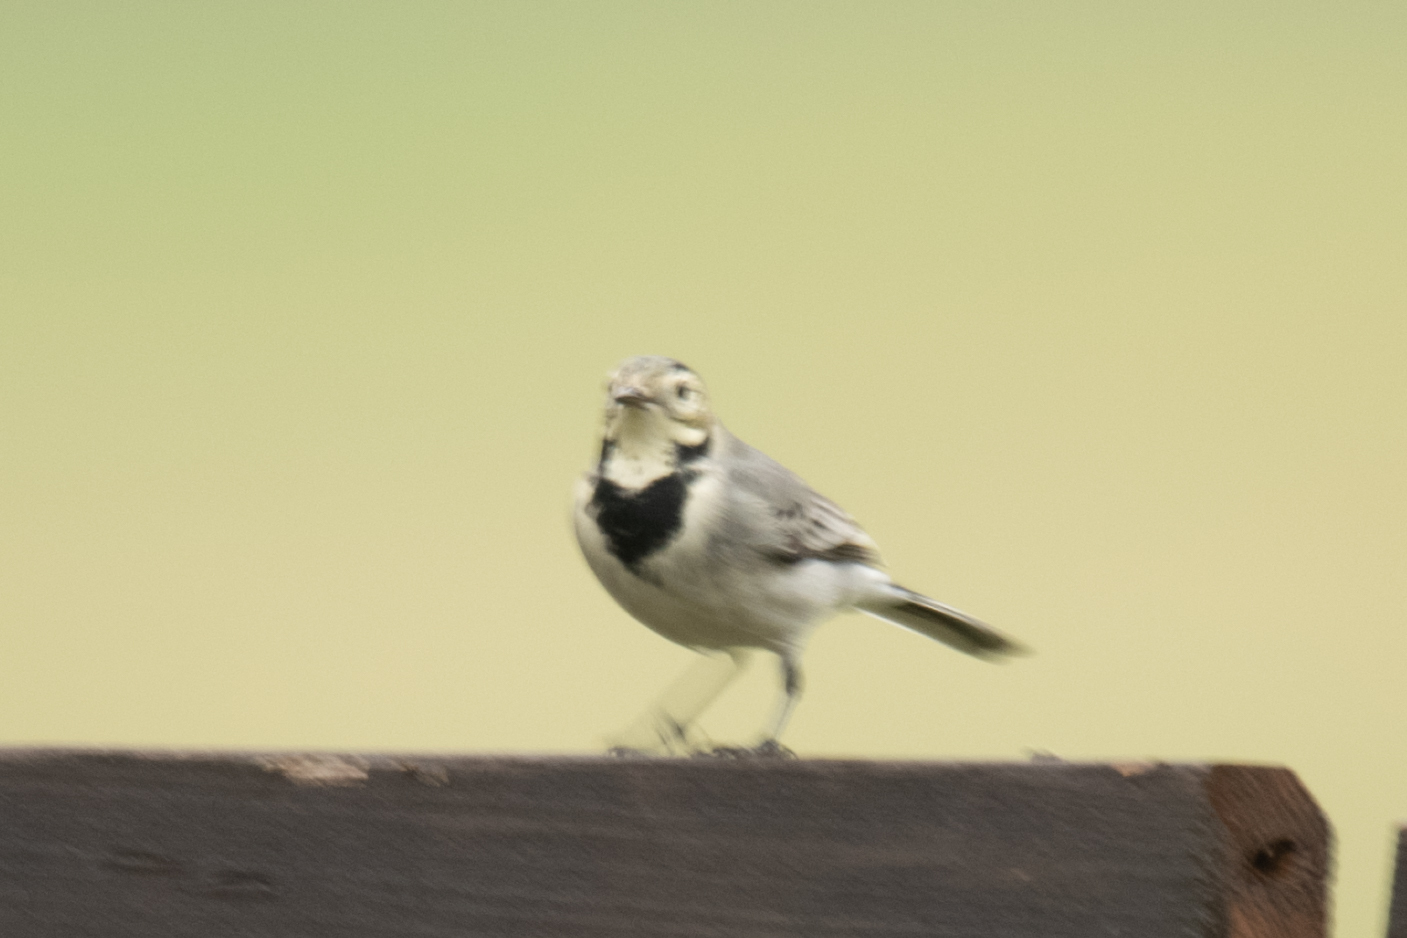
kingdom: Animalia
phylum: Chordata
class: Aves
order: Passeriformes
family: Motacillidae
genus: Motacilla
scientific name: Motacilla alba
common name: White wagtail
